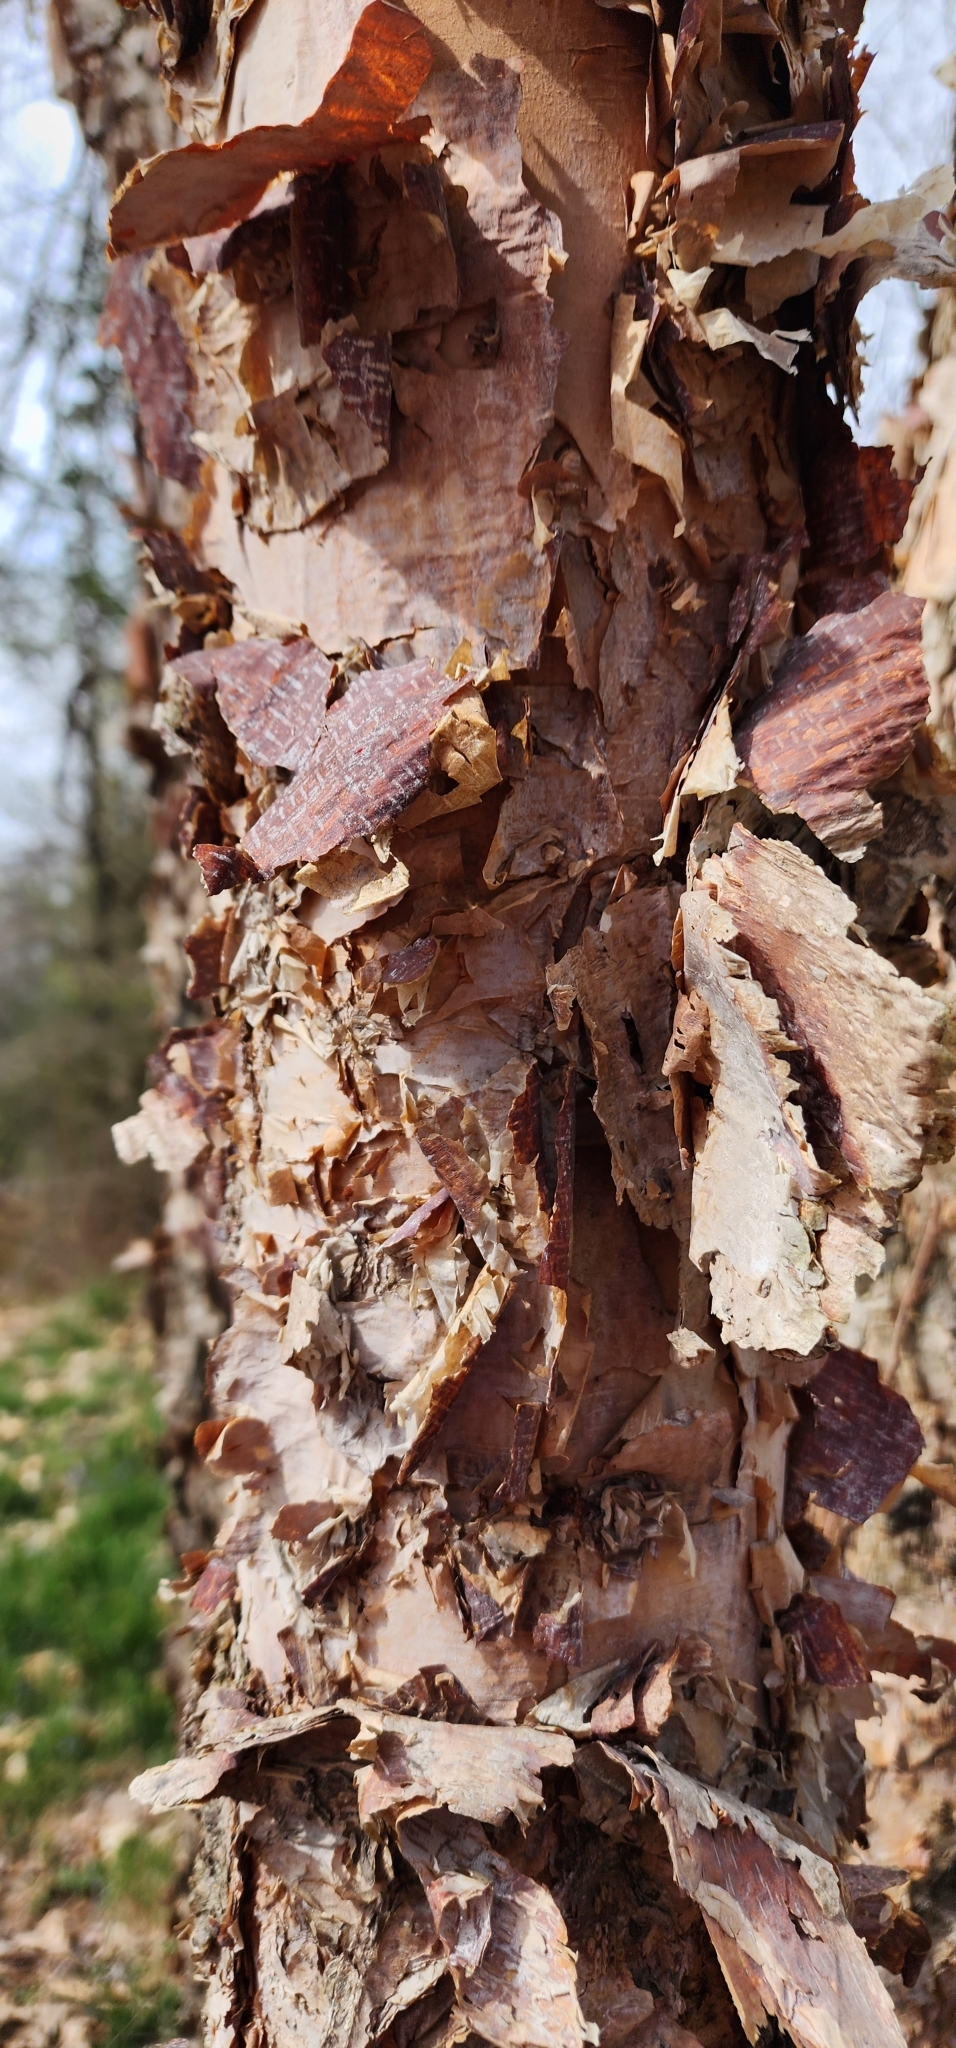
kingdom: Plantae
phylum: Tracheophyta
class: Magnoliopsida
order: Fagales
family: Betulaceae
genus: Betula
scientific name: Betula nigra
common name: Black birch
